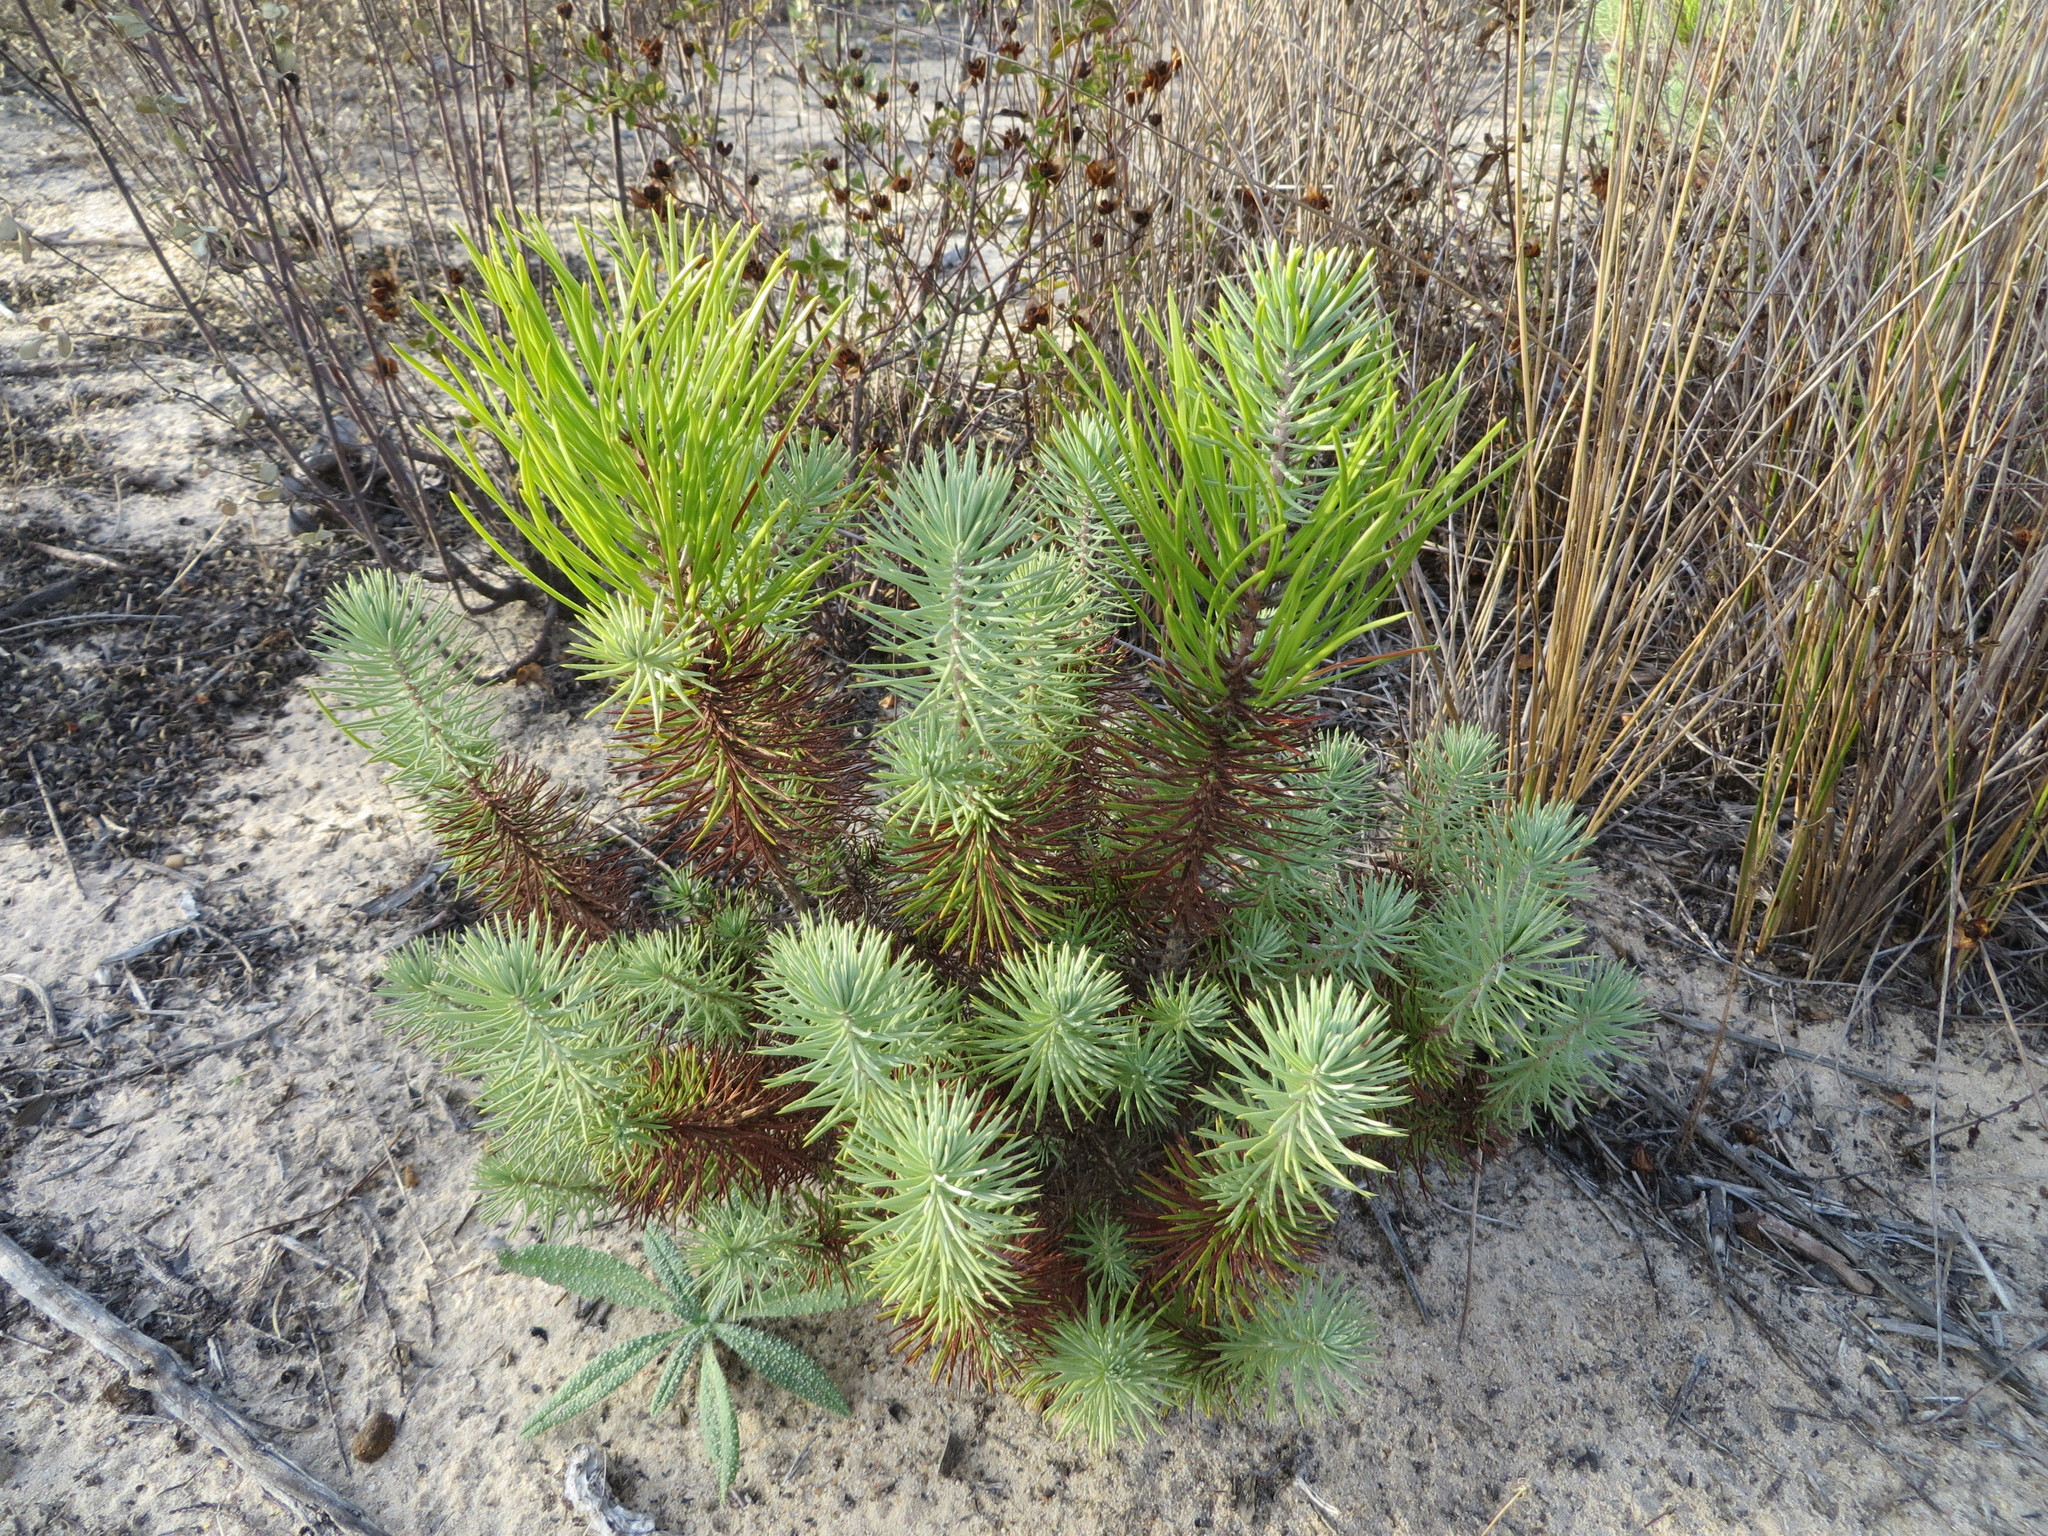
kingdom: Plantae
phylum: Tracheophyta
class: Pinopsida
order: Pinales
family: Pinaceae
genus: Pinus
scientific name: Pinus pinea
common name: Italian stone pine
